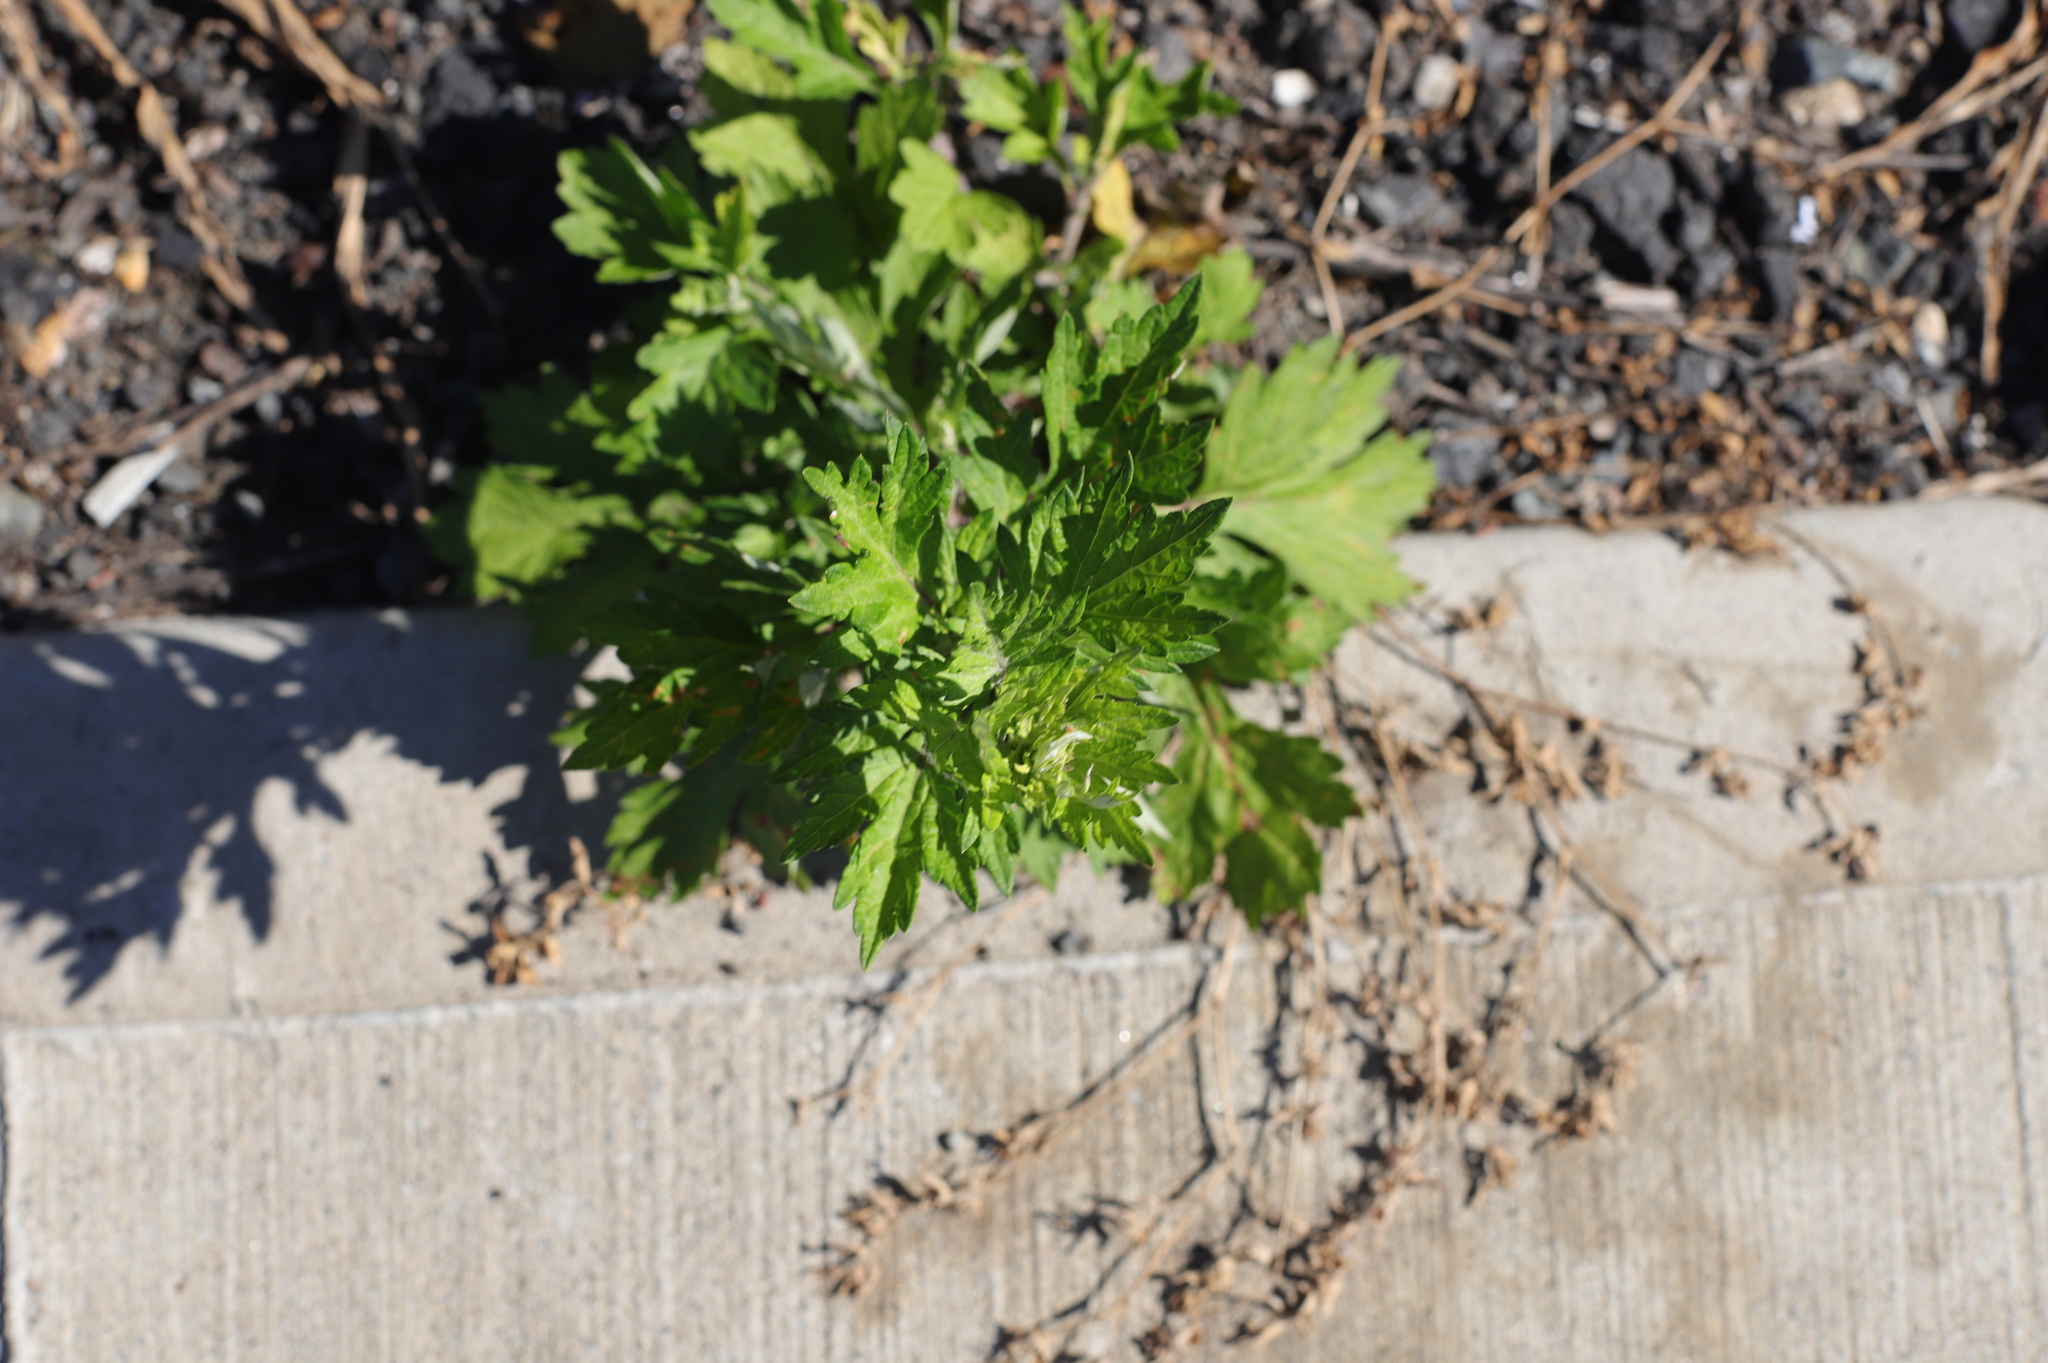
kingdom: Plantae
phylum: Tracheophyta
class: Magnoliopsida
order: Asterales
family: Asteraceae
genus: Artemisia
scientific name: Artemisia vulgaris
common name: Mugwort
